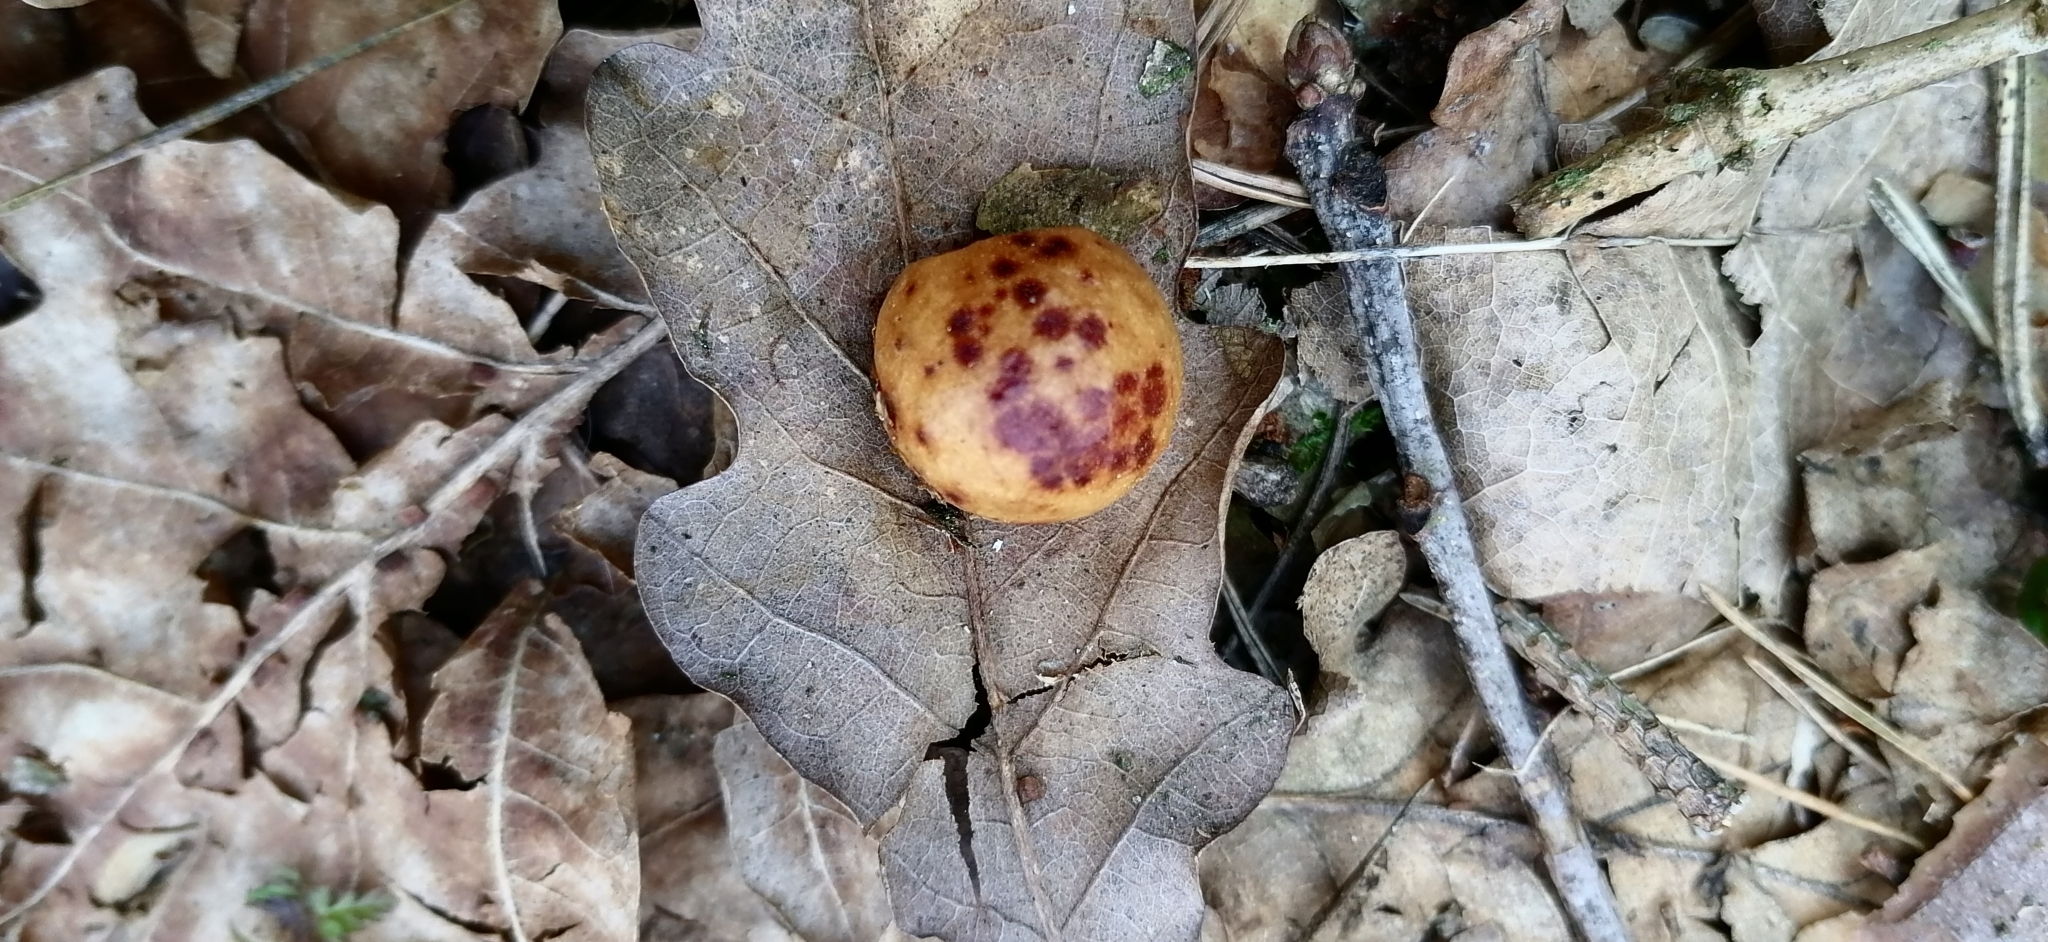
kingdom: Animalia
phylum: Arthropoda
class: Insecta
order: Hymenoptera
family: Cynipidae
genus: Cynips
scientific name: Cynips quercusfolii
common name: Cherry gall
